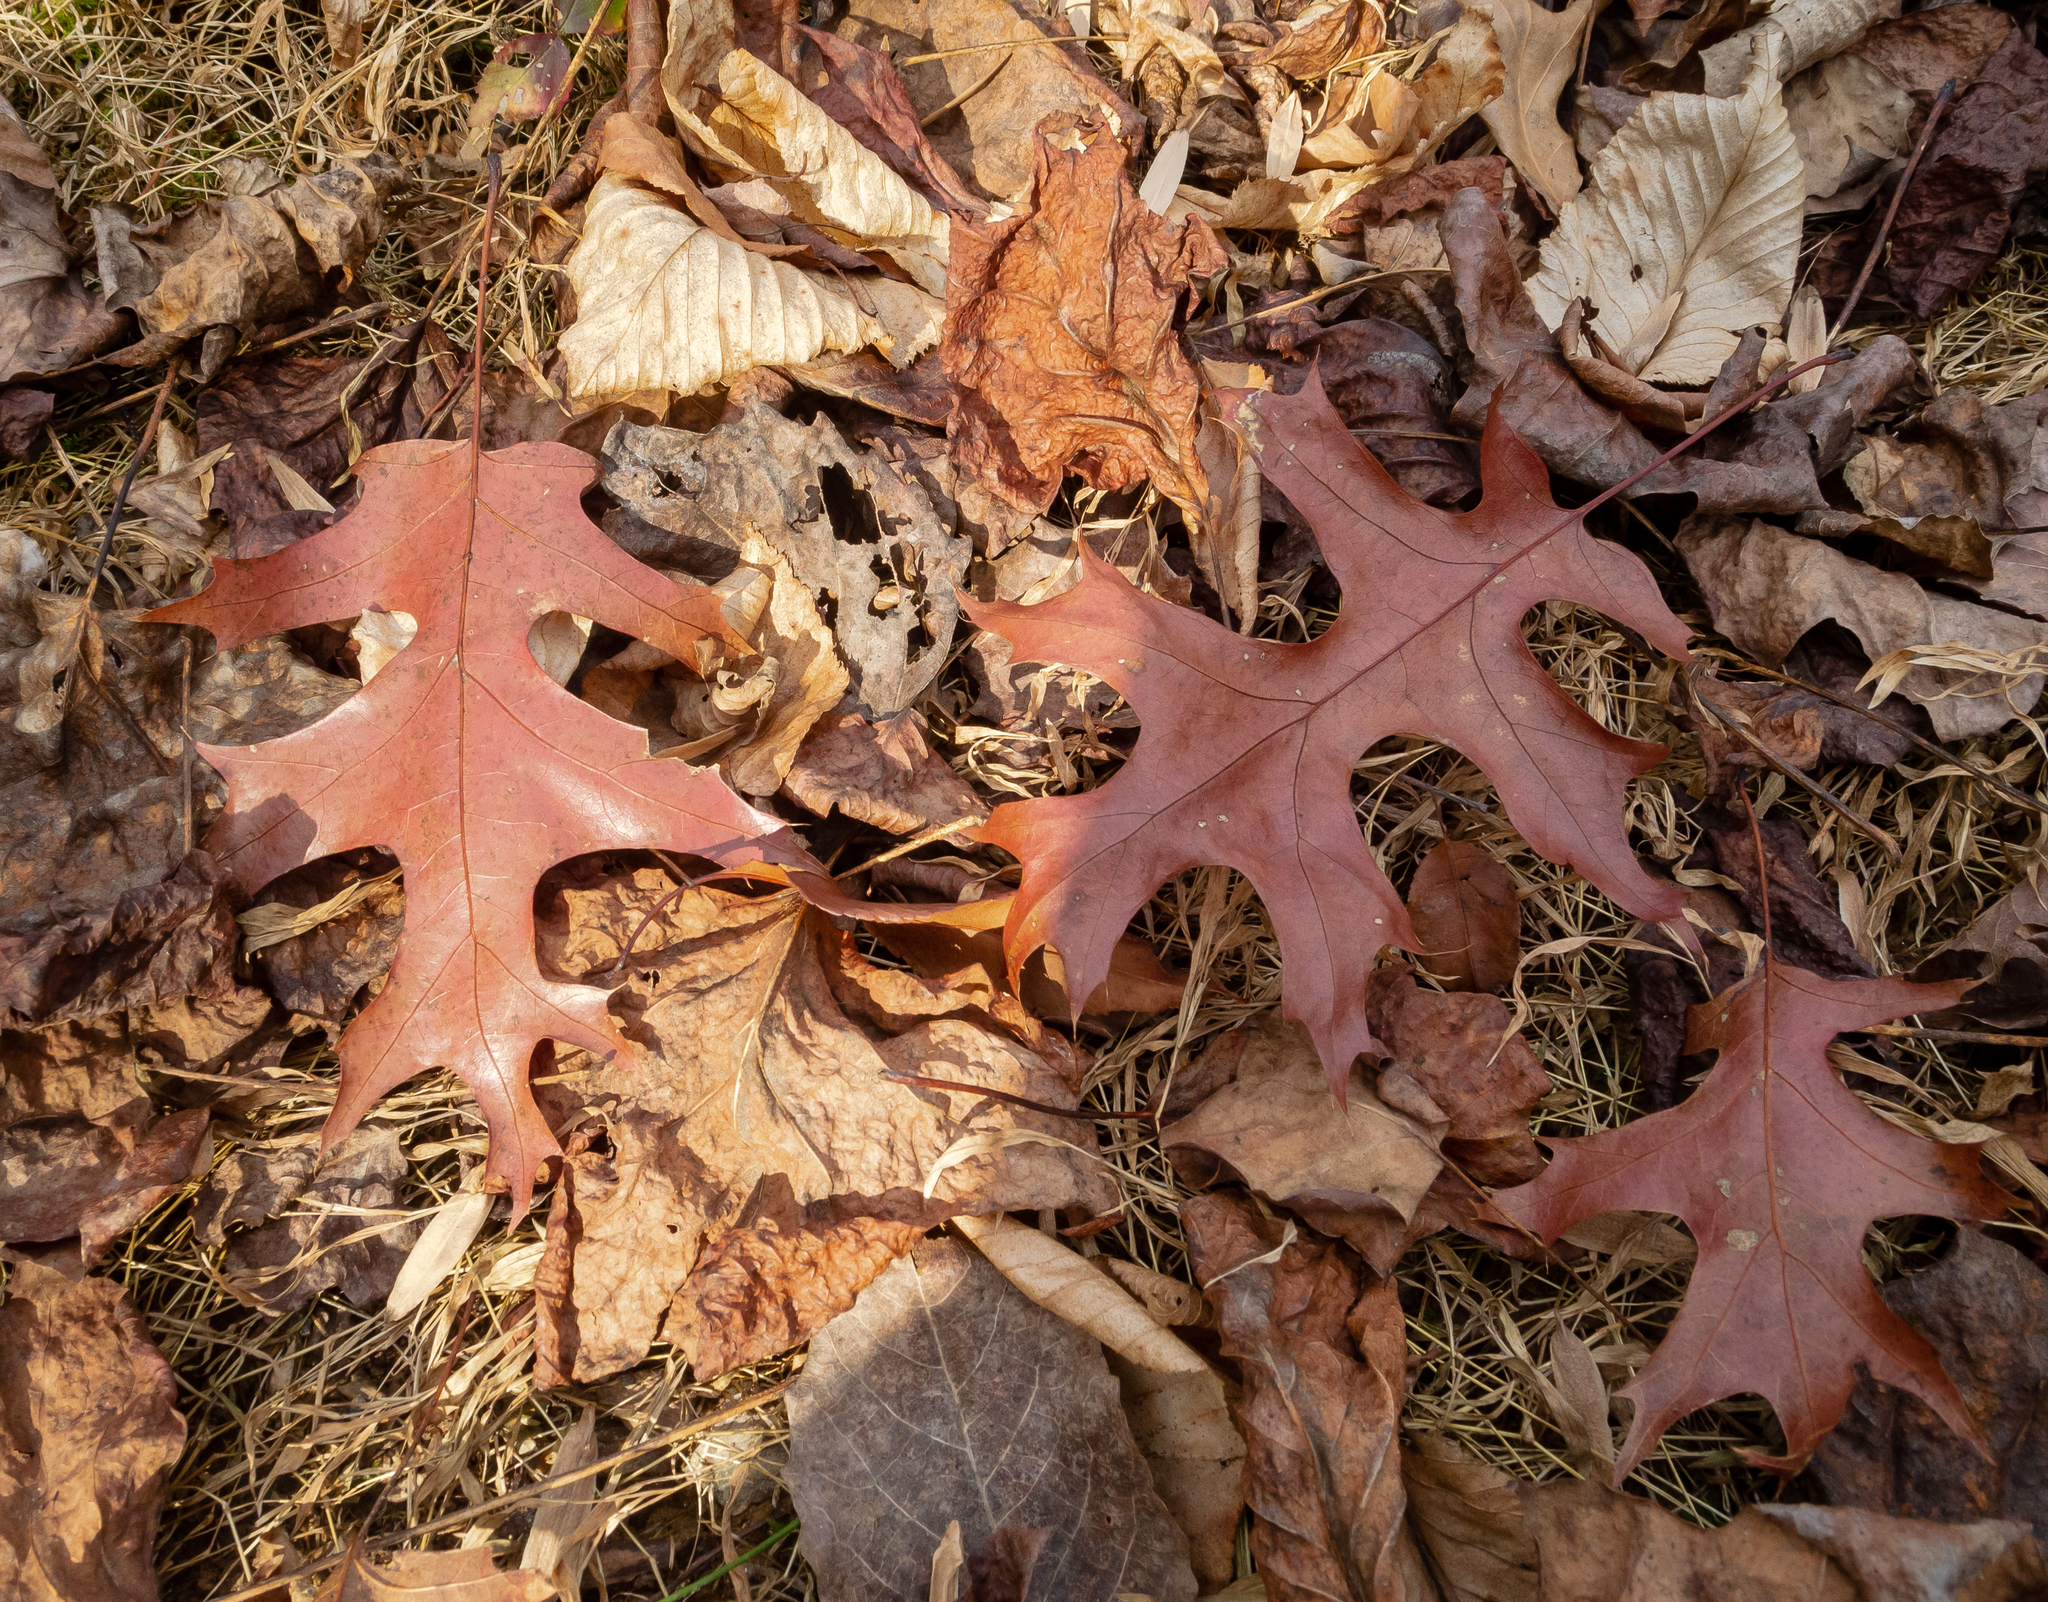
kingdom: Plantae
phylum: Tracheophyta
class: Magnoliopsida
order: Fagales
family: Fagaceae
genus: Quercus
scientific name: Quercus coccinea
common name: Scarlet oak
